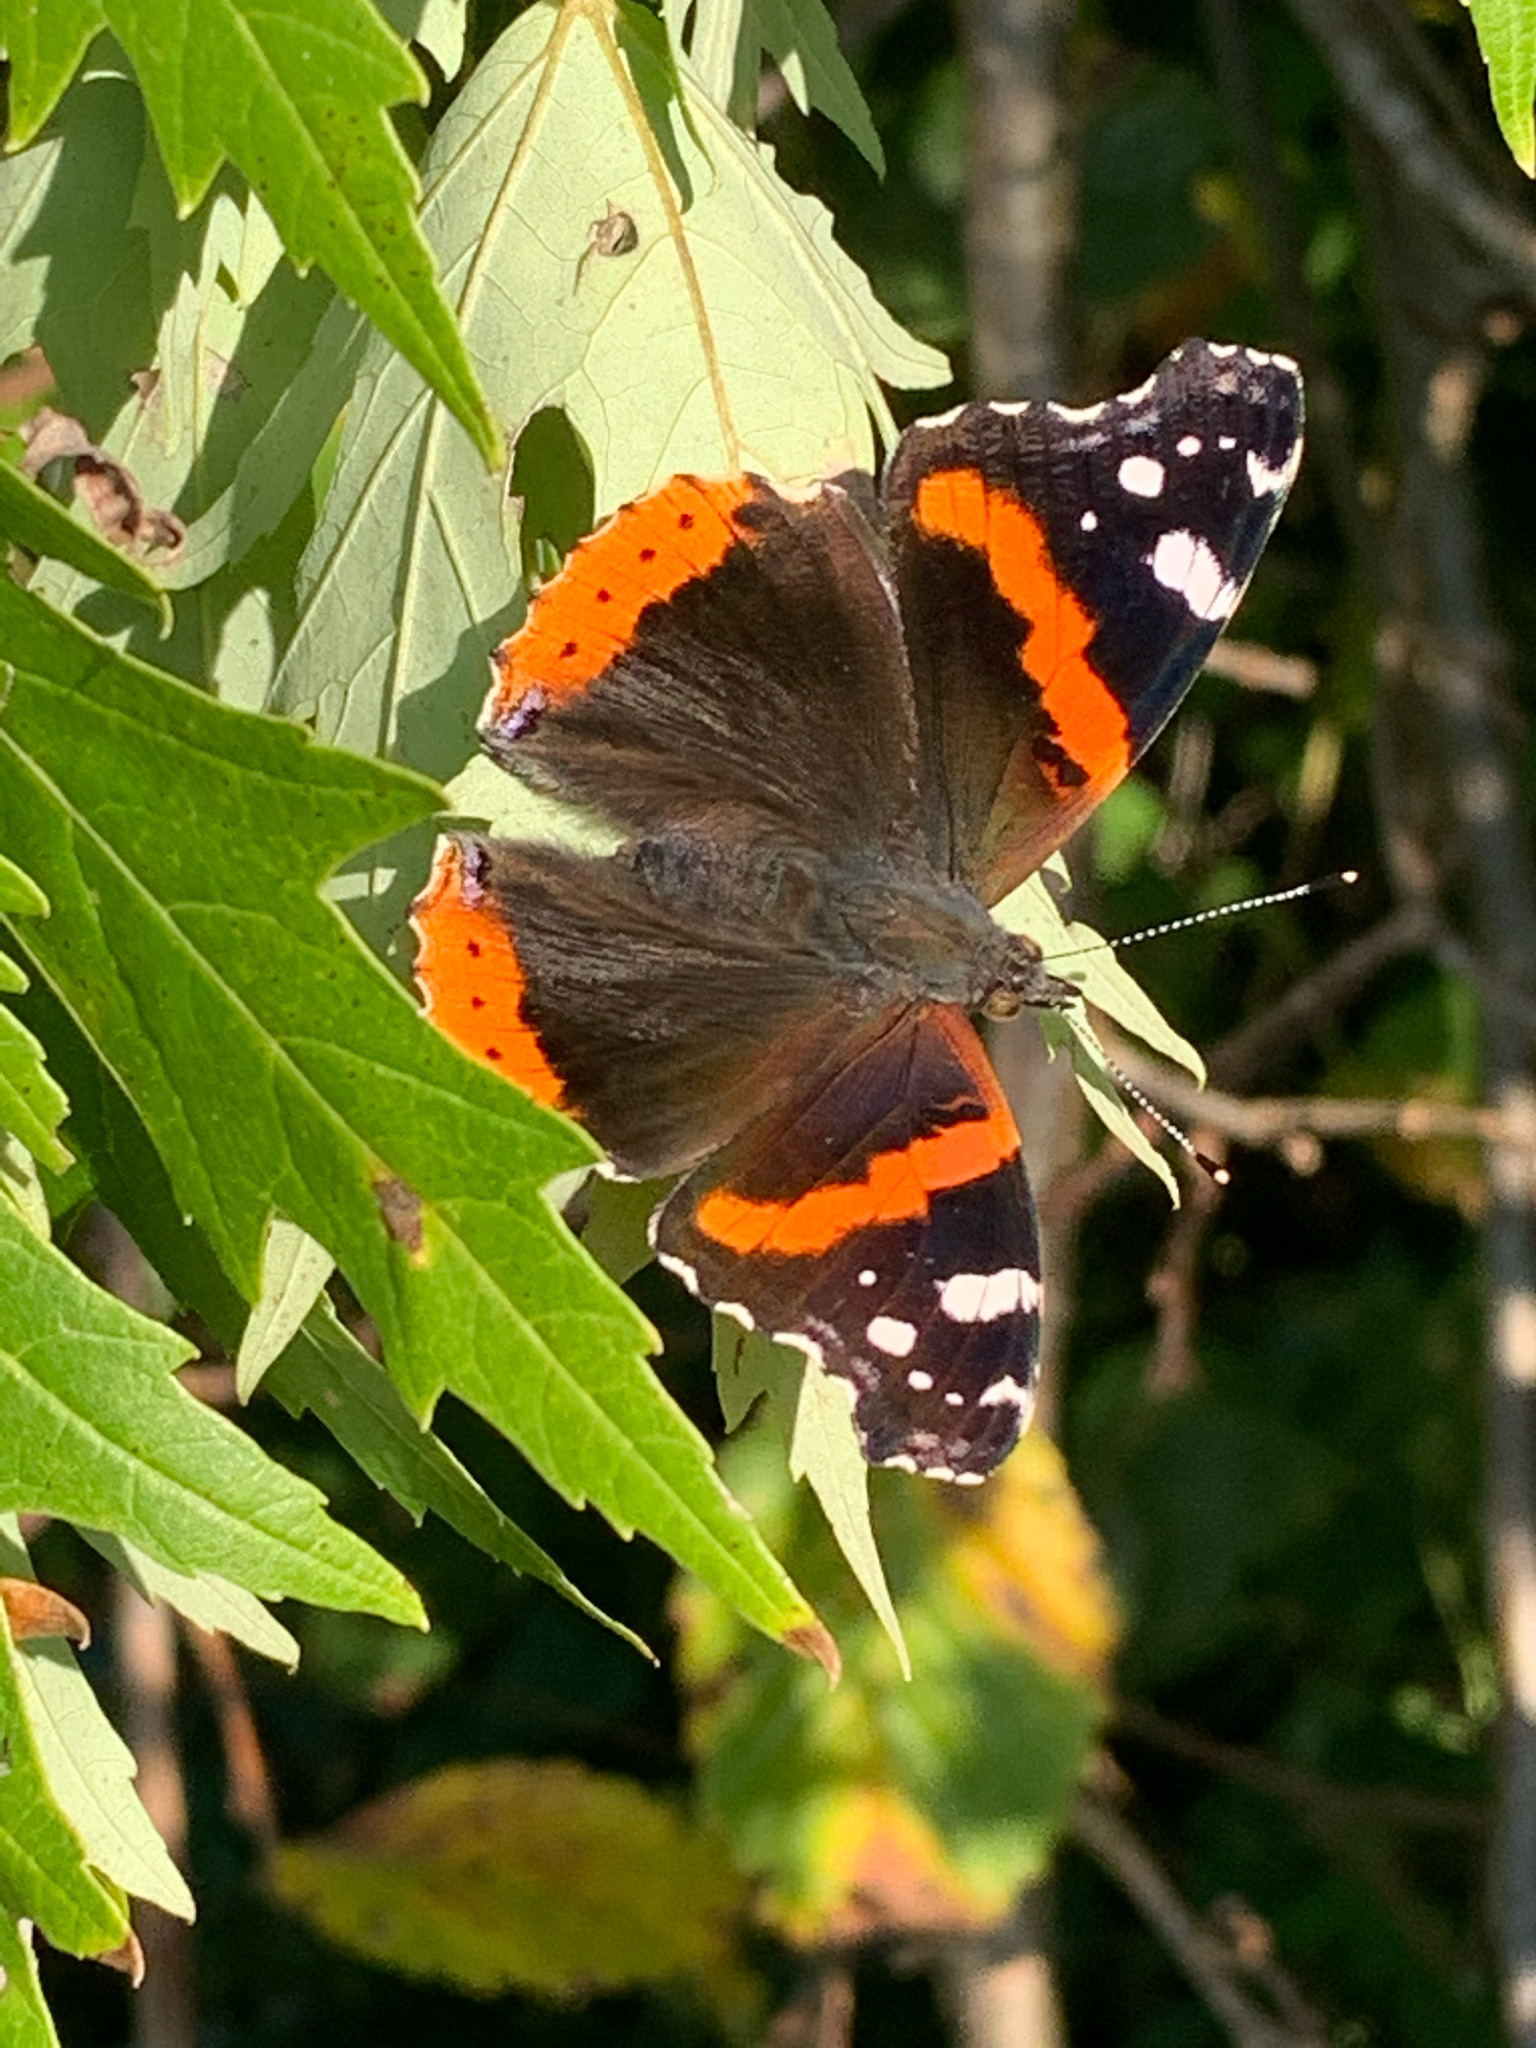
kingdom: Animalia
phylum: Arthropoda
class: Insecta
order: Lepidoptera
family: Nymphalidae
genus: Vanessa
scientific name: Vanessa atalanta
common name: Red admiral
